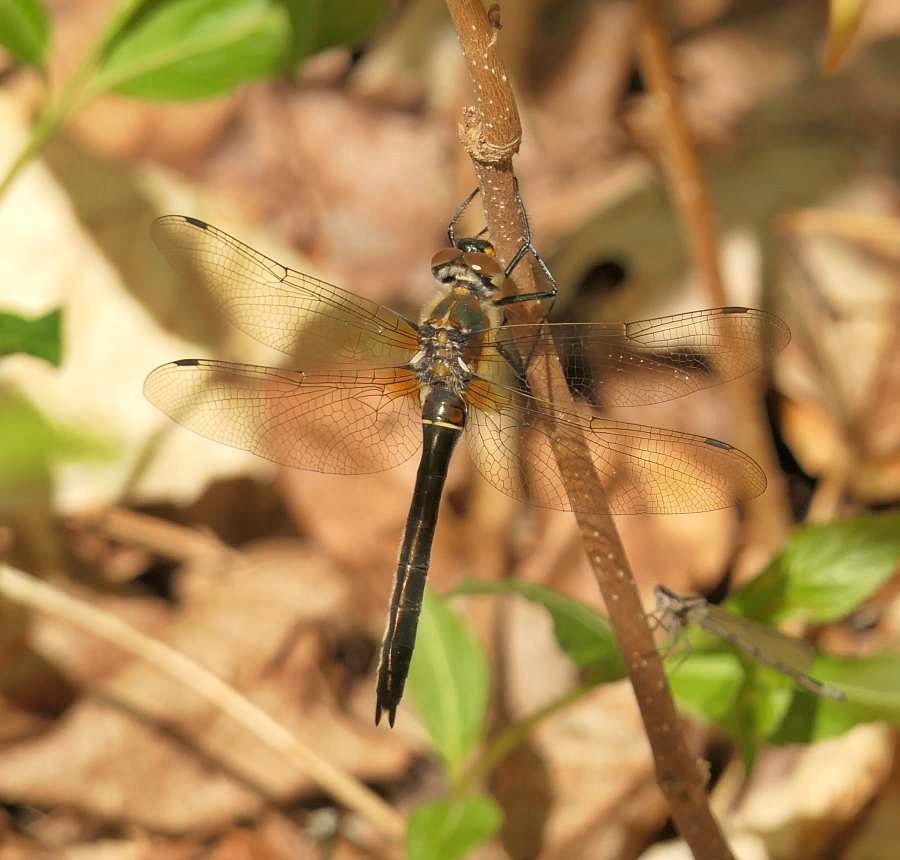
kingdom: Animalia
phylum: Arthropoda
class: Insecta
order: Odonata
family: Corduliidae
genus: Cordulia
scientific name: Cordulia shurtleffii
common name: American emerald
